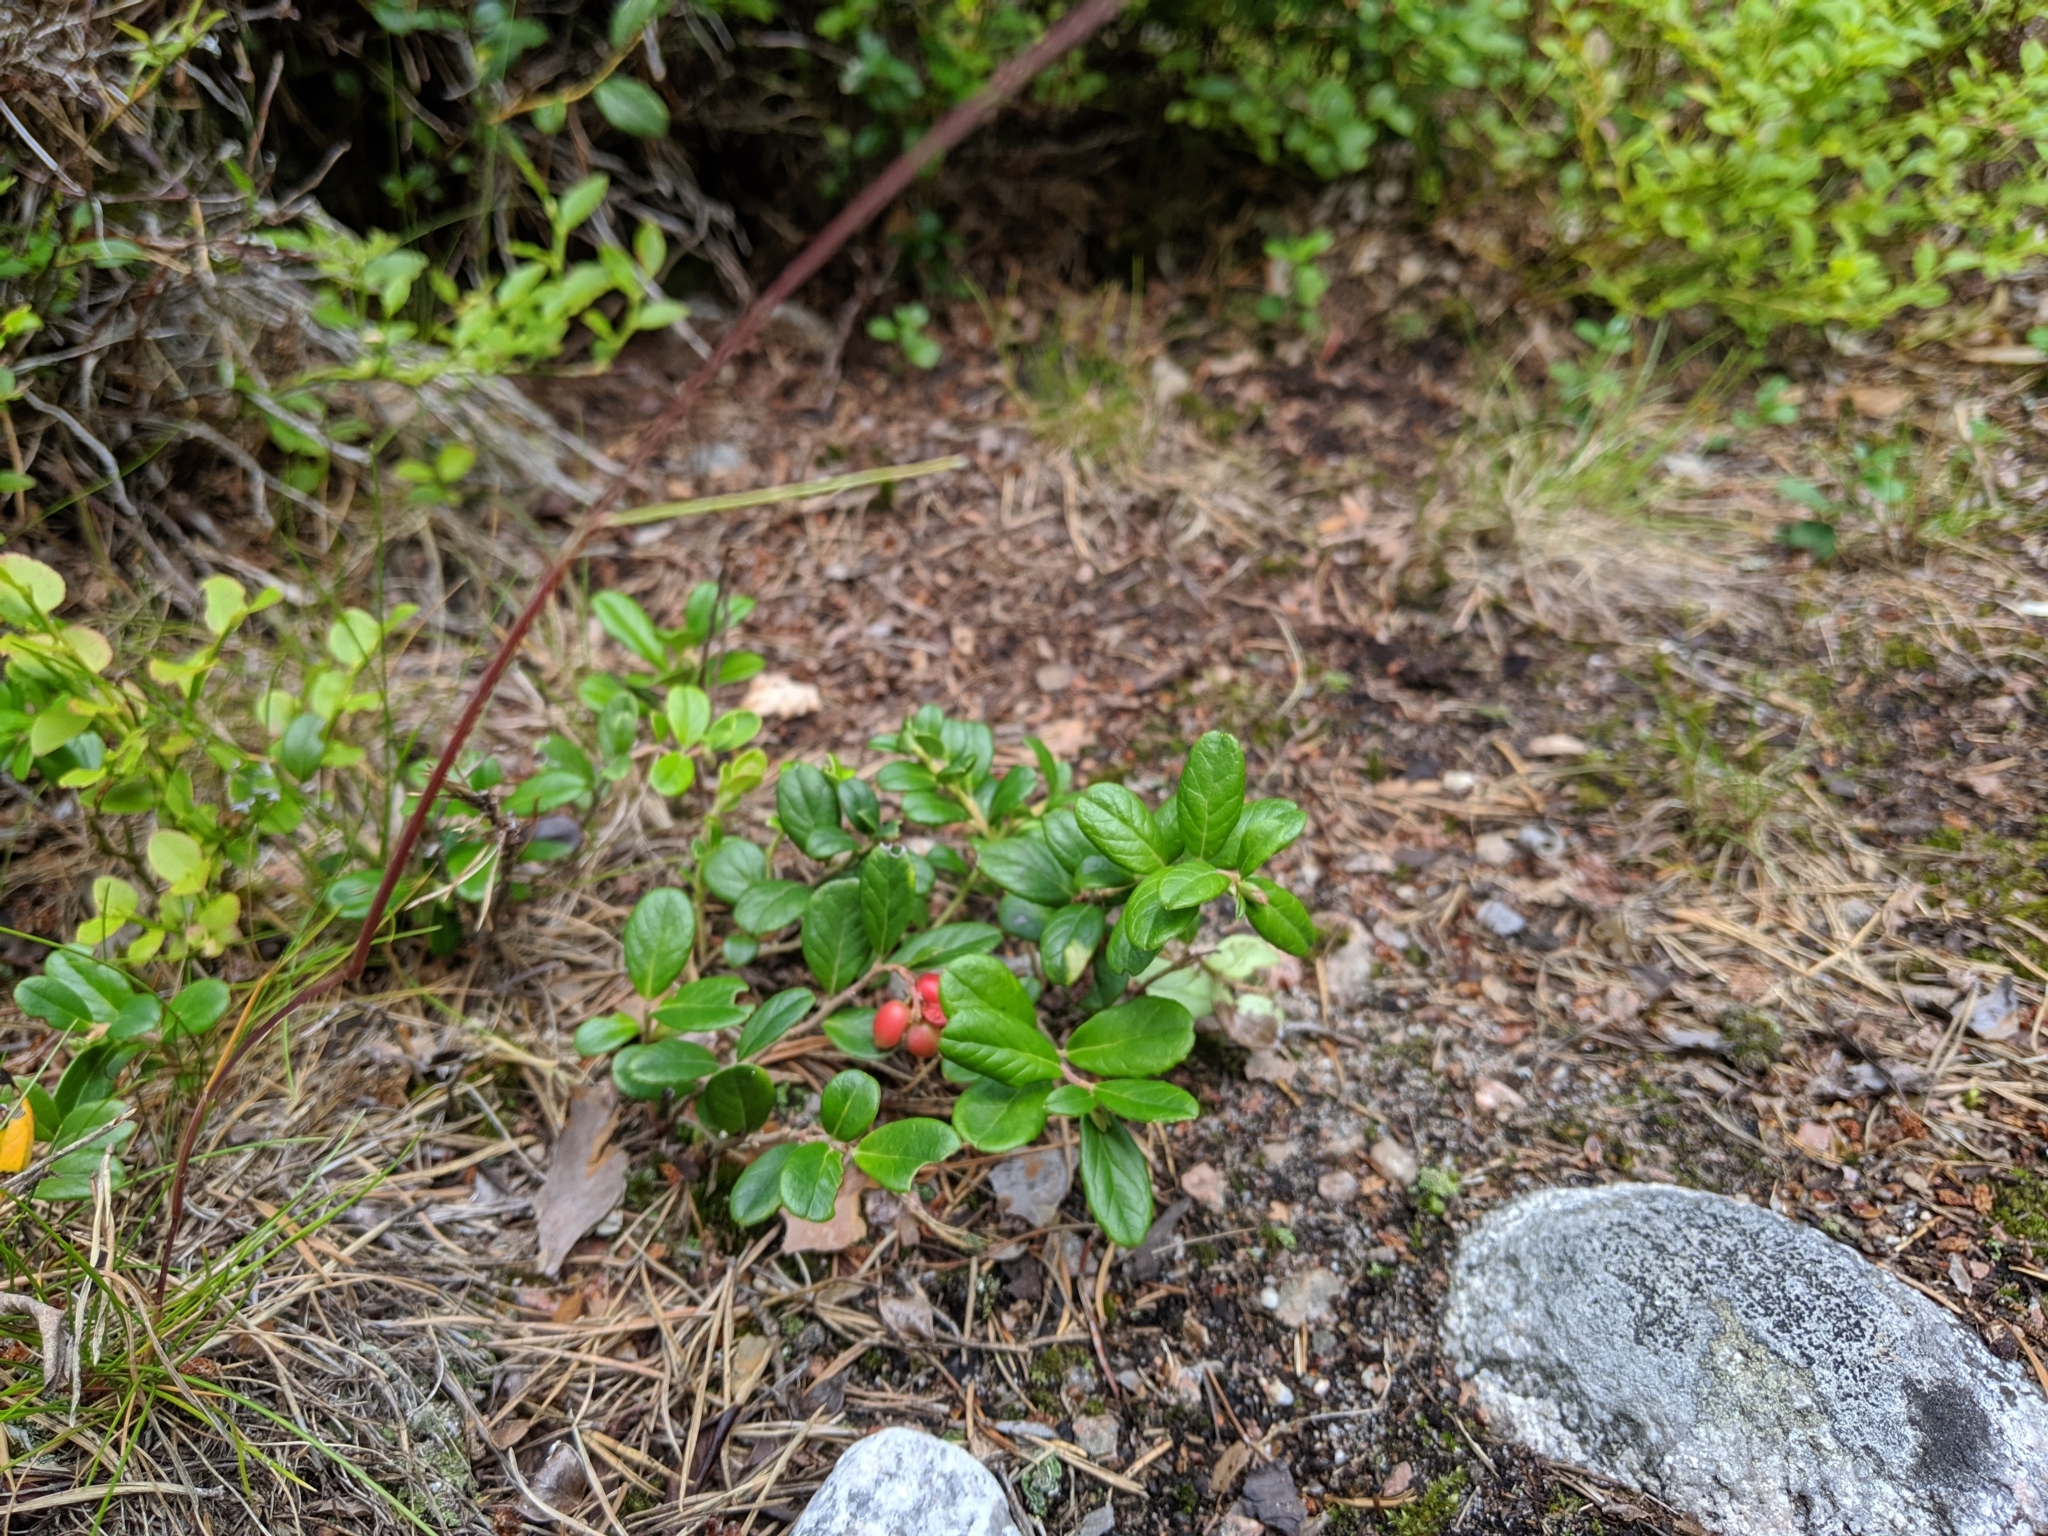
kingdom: Plantae
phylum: Tracheophyta
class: Magnoliopsida
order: Ericales
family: Ericaceae
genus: Vaccinium
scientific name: Vaccinium vitis-idaea
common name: Cowberry
